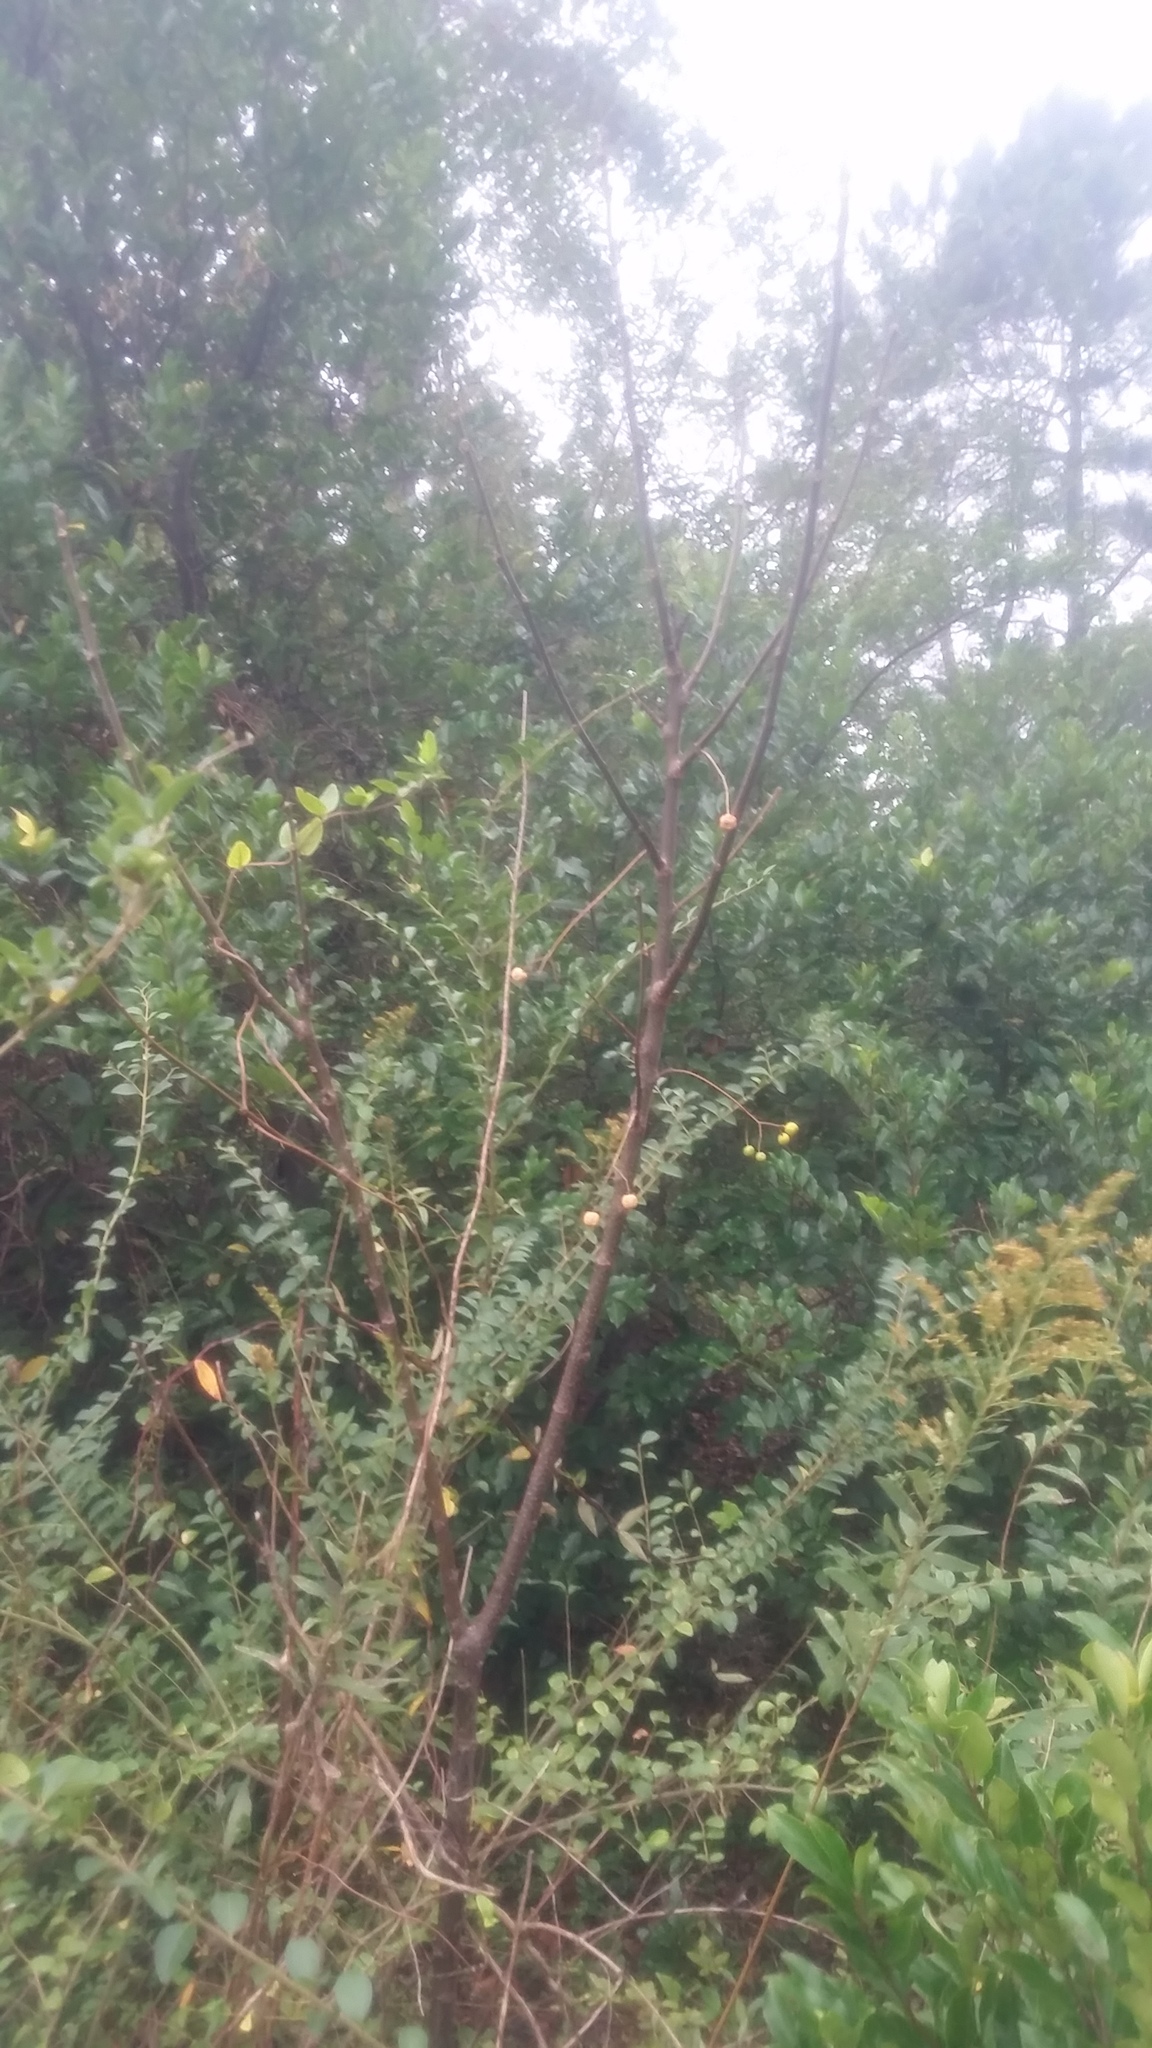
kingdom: Plantae
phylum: Tracheophyta
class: Magnoliopsida
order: Sapindales
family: Meliaceae
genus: Melia
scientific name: Melia azedarach
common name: Chinaberrytree
